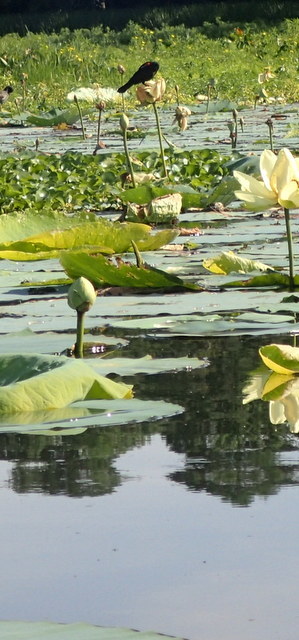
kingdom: Animalia
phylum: Chordata
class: Aves
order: Passeriformes
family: Icteridae
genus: Agelaius
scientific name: Agelaius phoeniceus
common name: Red-winged blackbird
